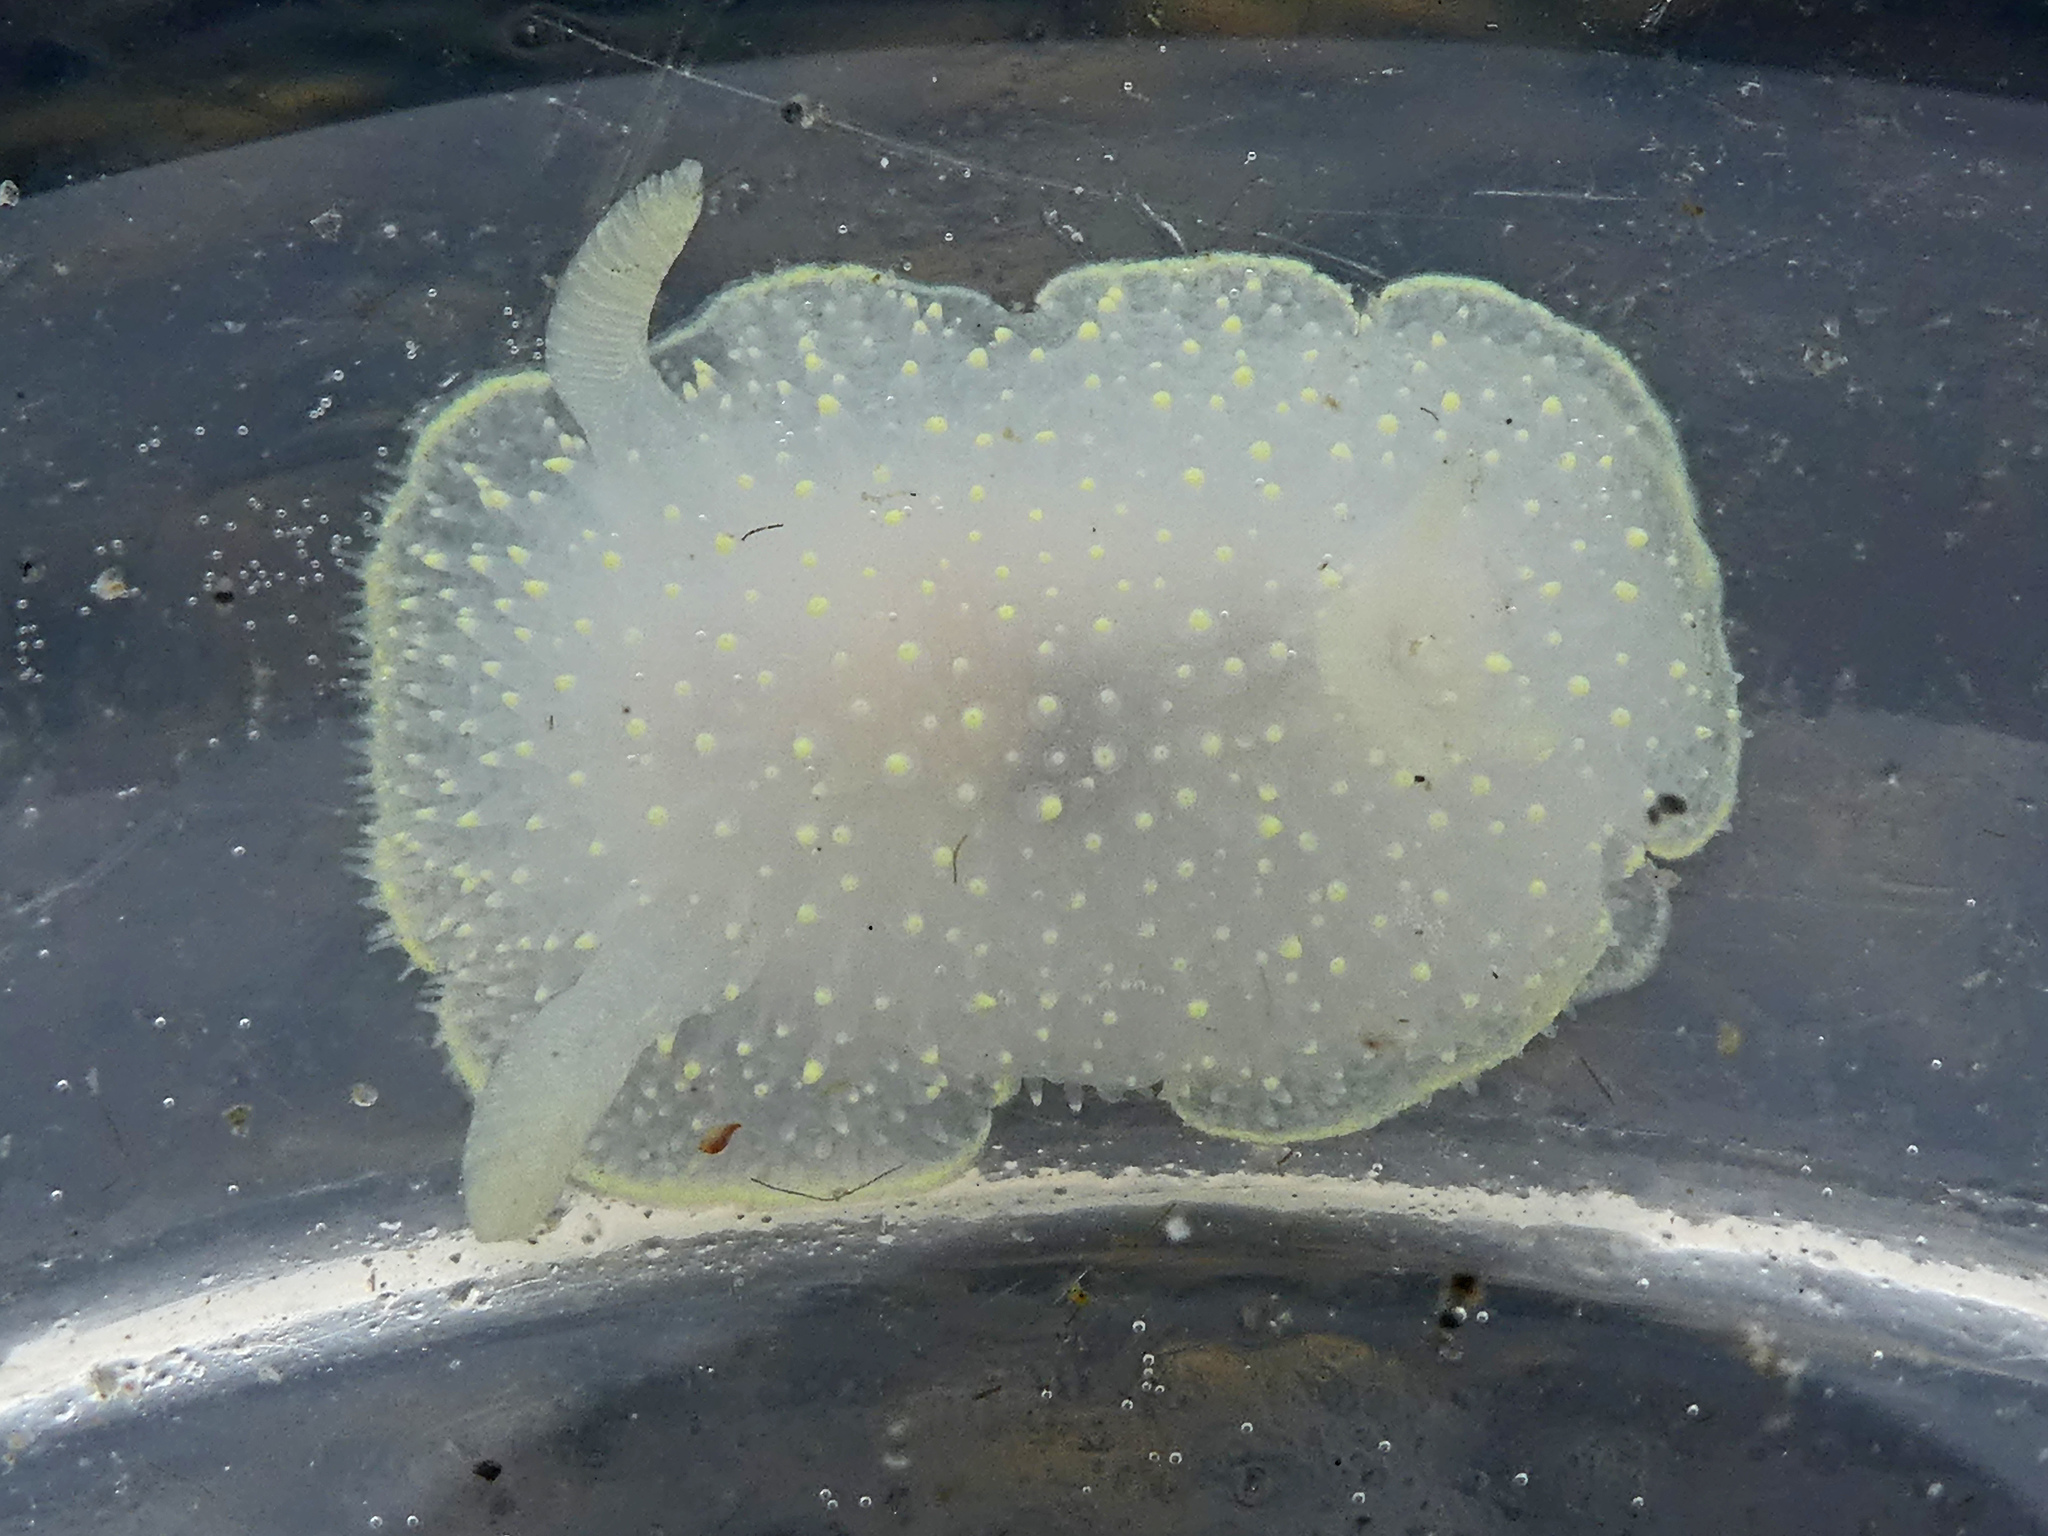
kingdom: Animalia
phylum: Mollusca
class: Gastropoda
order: Nudibranchia
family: Onchidorididae
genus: Acanthodoris
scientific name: Acanthodoris hudsoni
